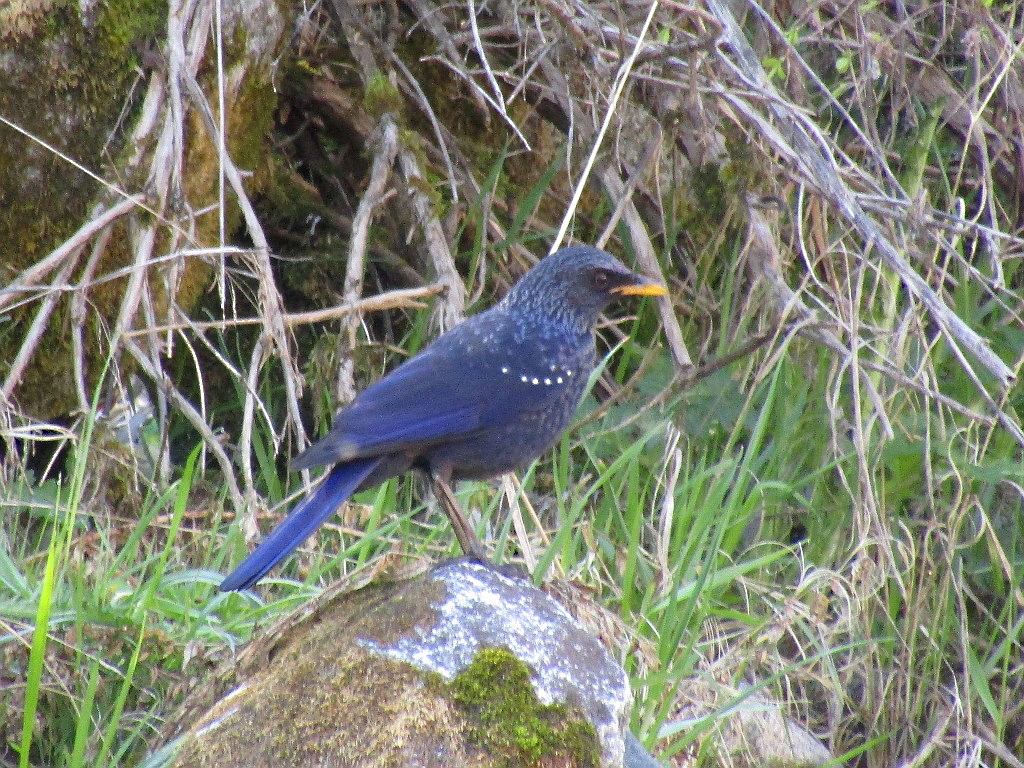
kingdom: Animalia
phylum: Chordata
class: Aves
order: Passeriformes
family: Muscicapidae
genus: Myophonus
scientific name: Myophonus caeruleus
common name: Blue whistling-thrush
